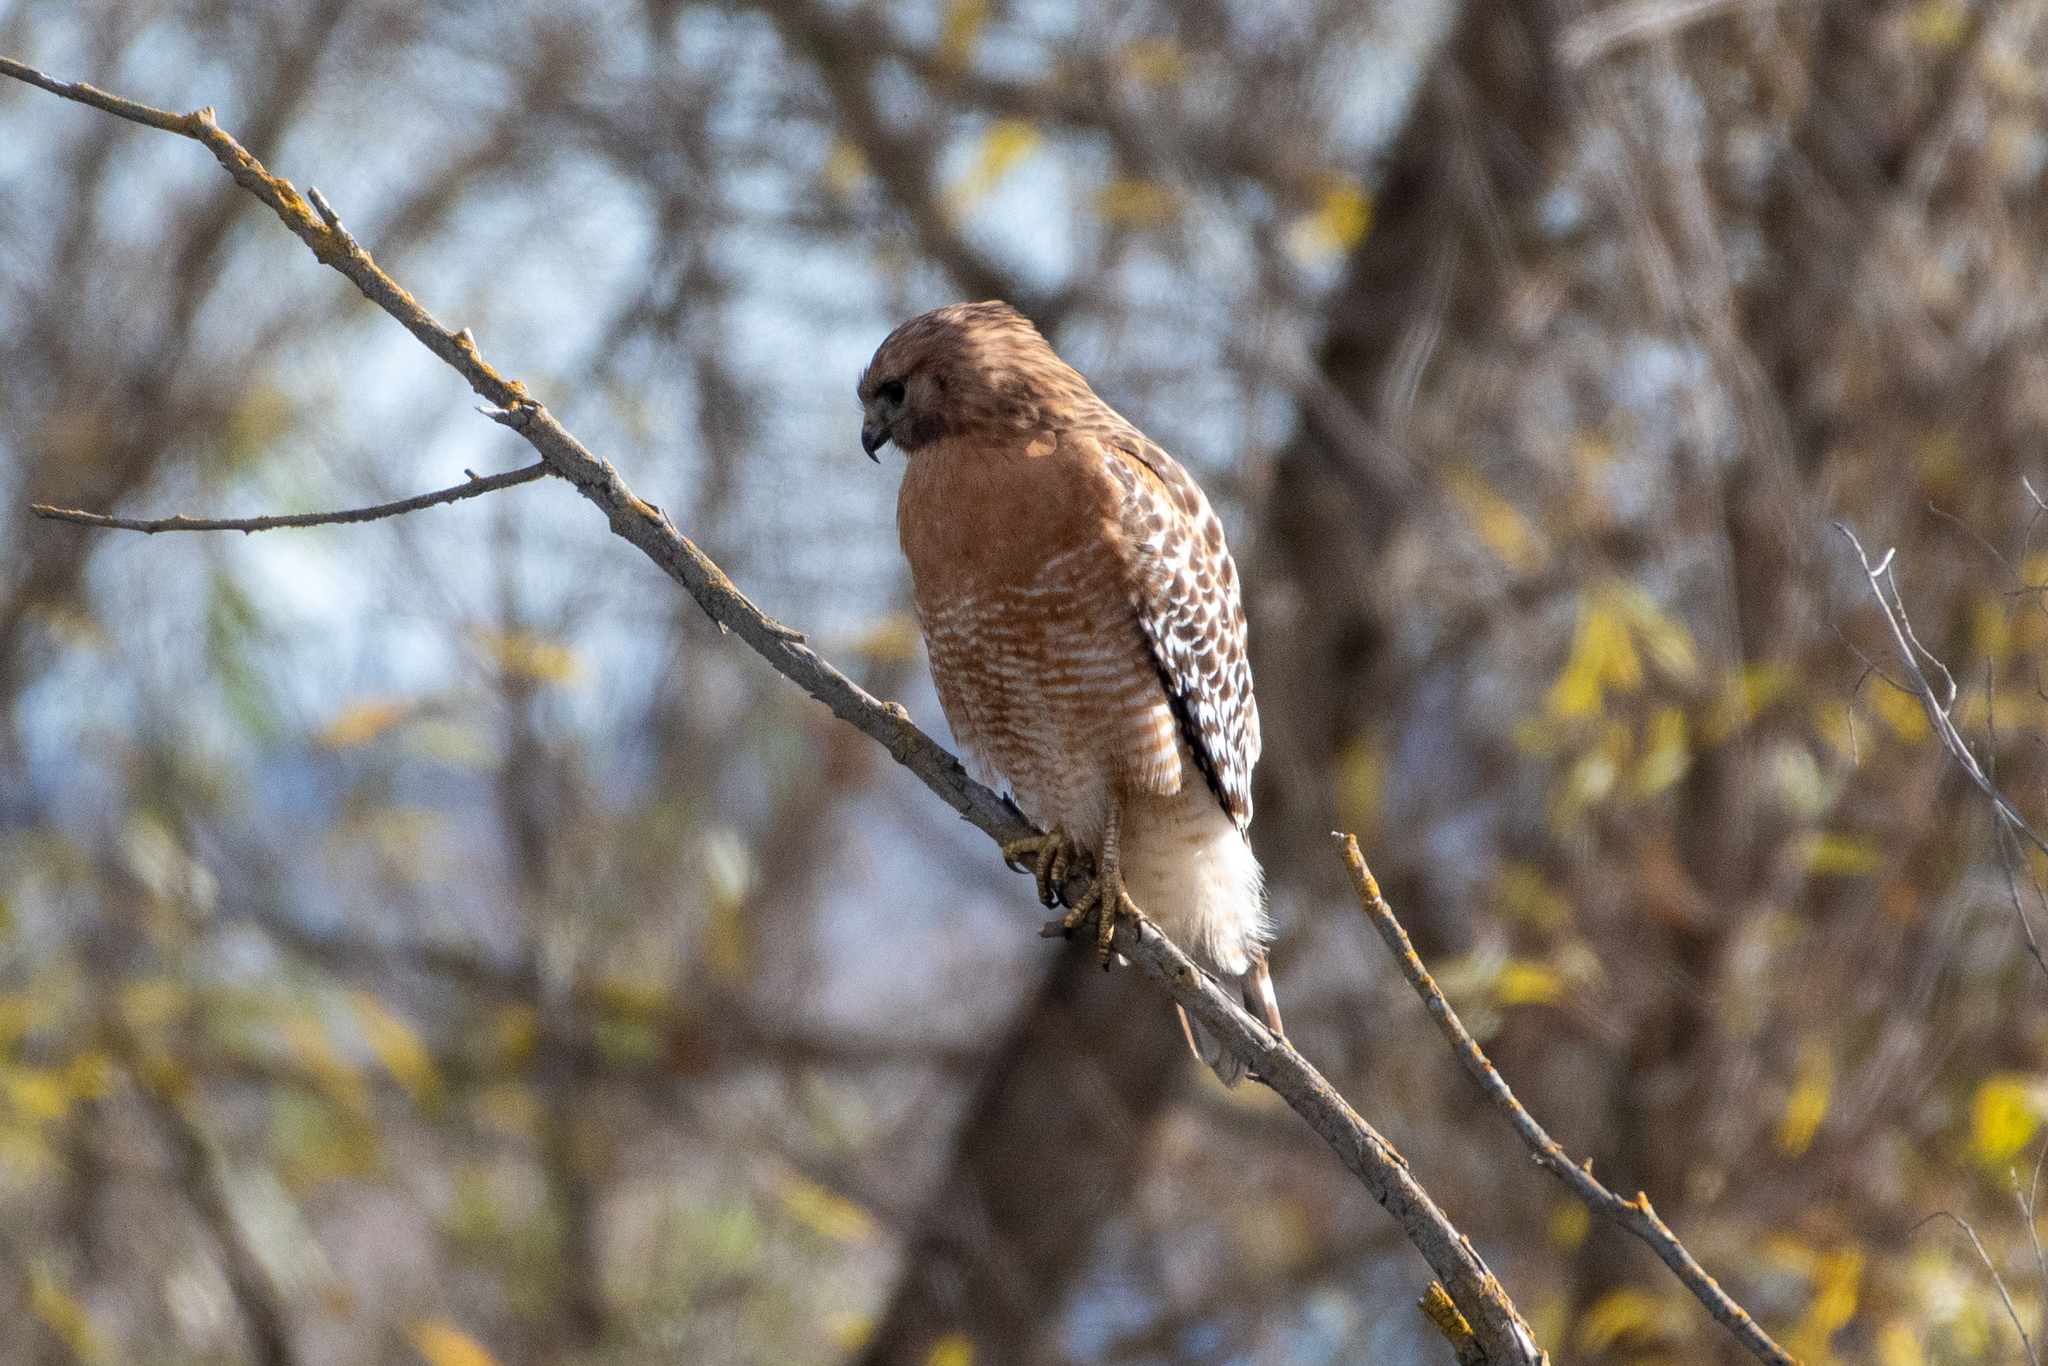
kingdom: Animalia
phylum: Chordata
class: Aves
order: Accipitriformes
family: Accipitridae
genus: Buteo
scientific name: Buteo lineatus
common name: Red-shouldered hawk
